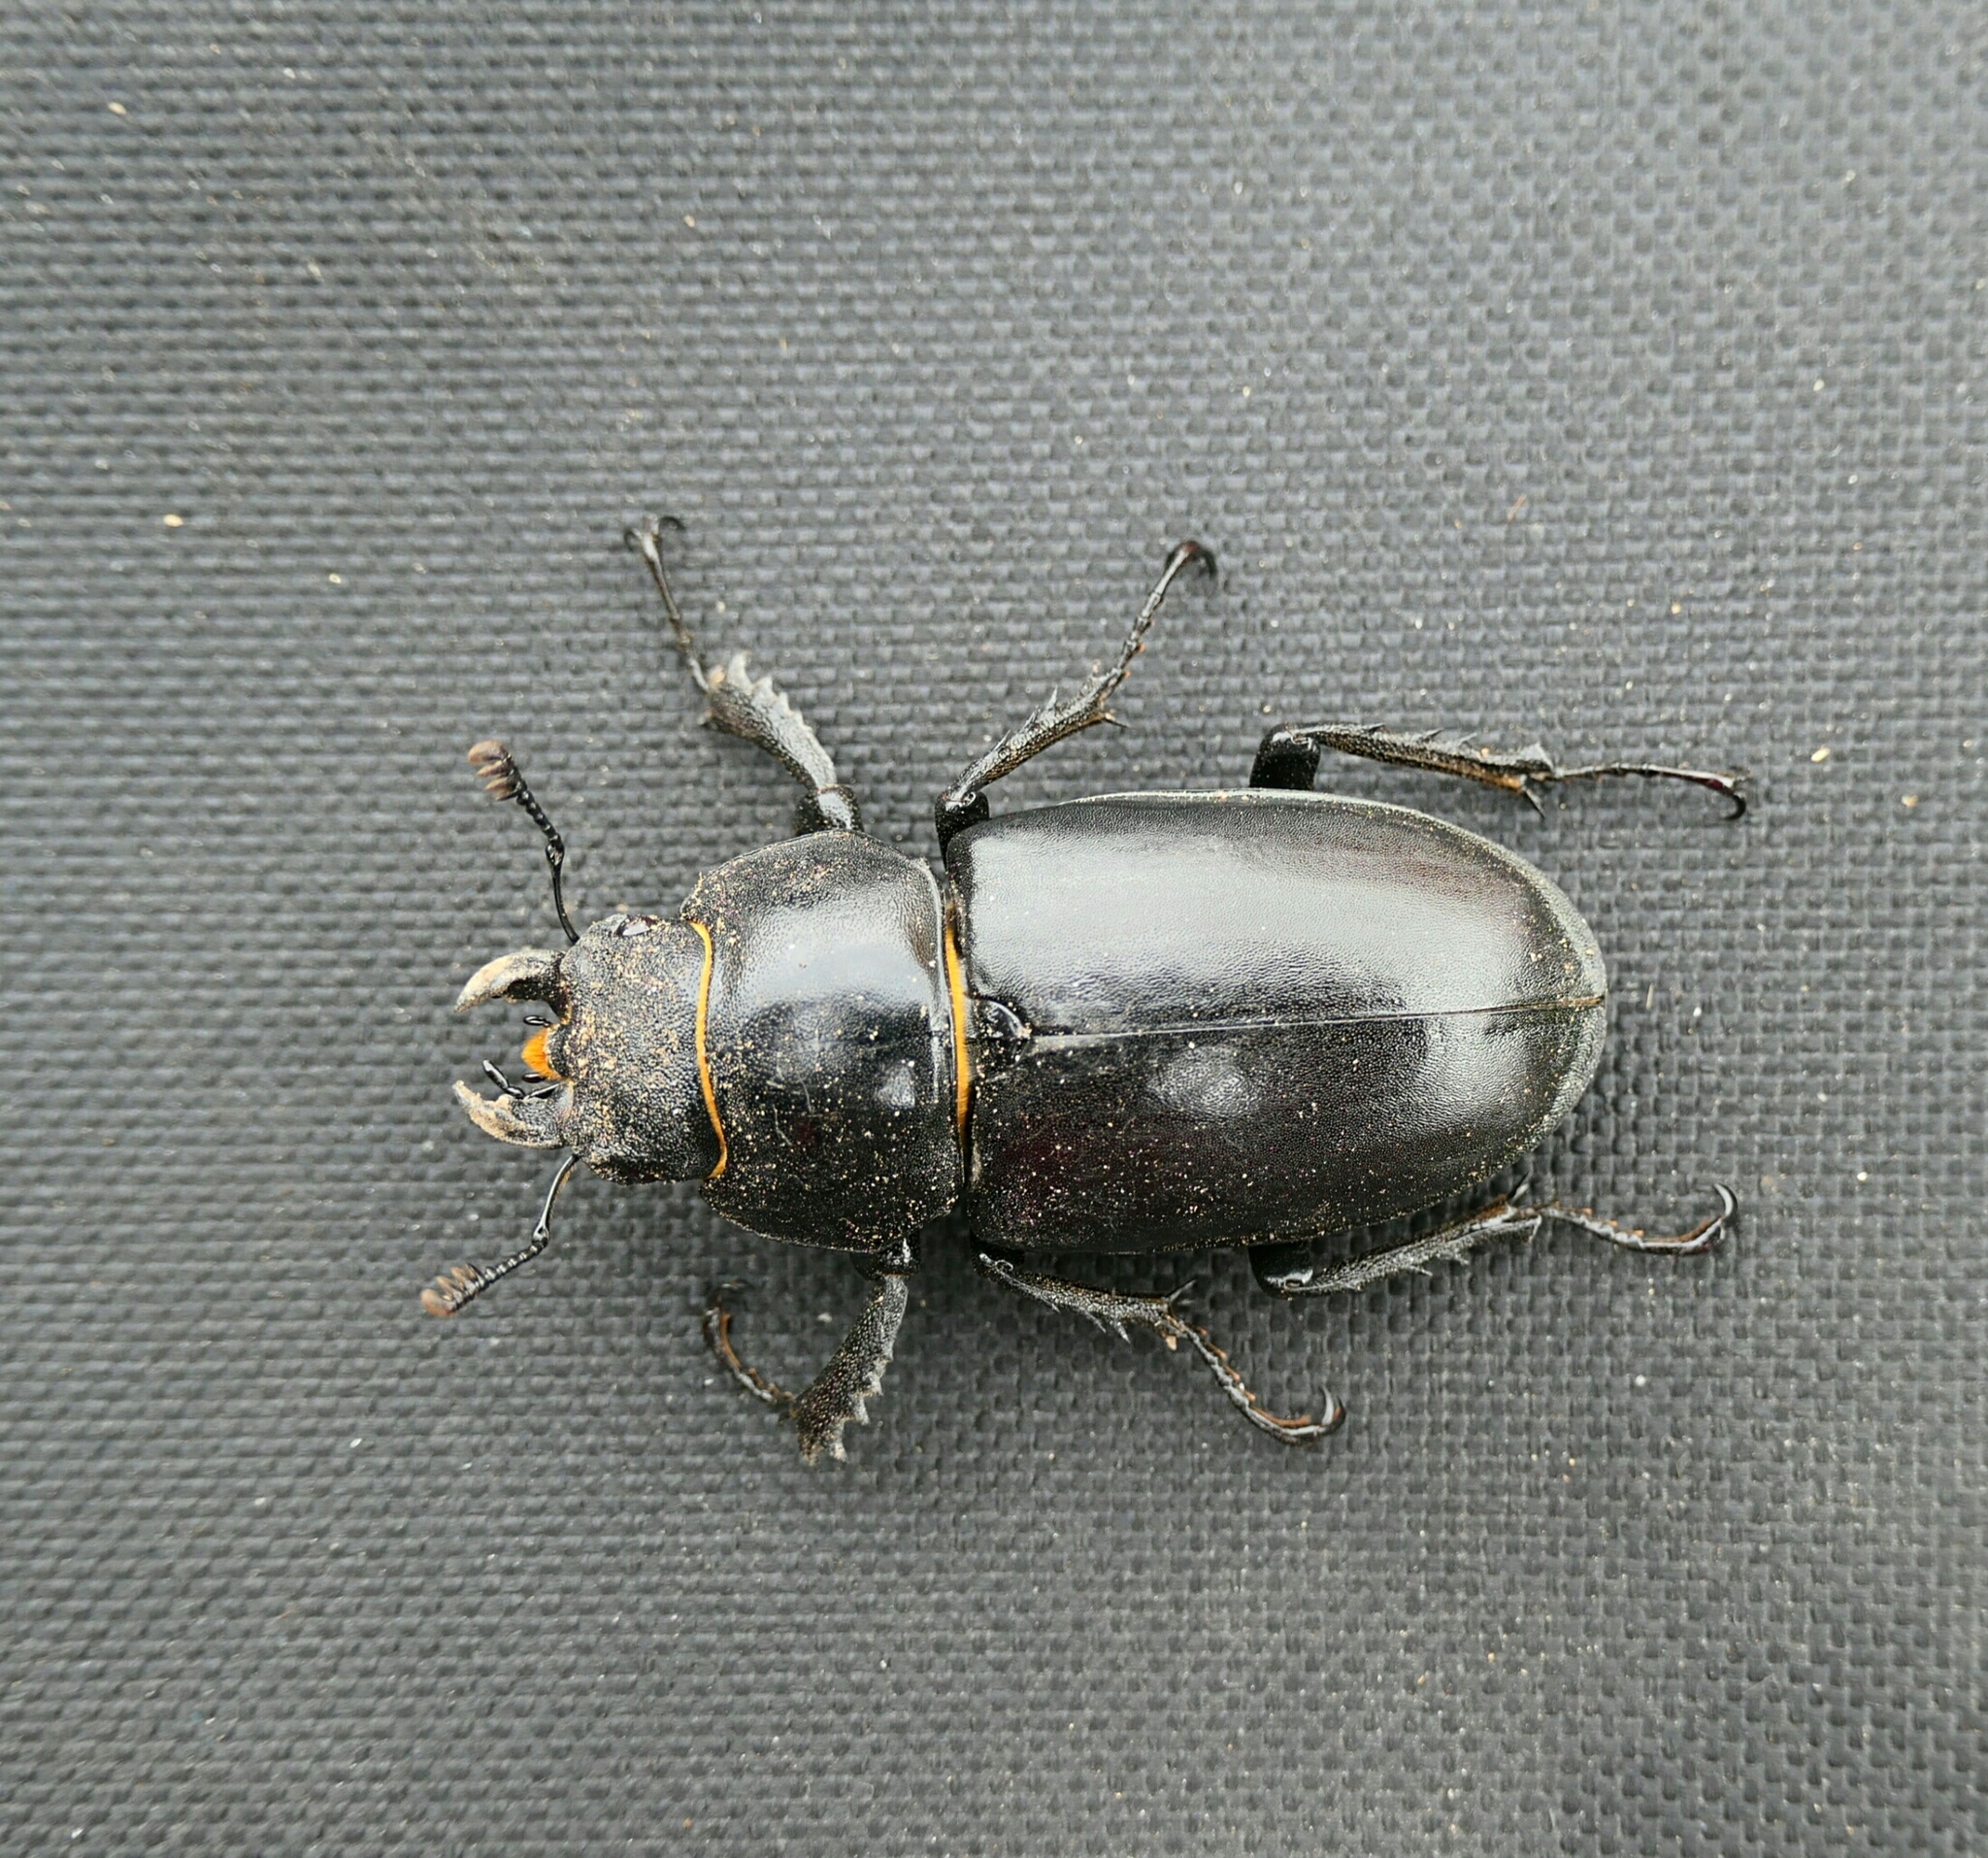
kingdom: Animalia
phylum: Arthropoda
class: Insecta
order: Coleoptera
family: Lucanidae
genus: Lucanus
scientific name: Lucanus cervus
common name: Stag beetle
